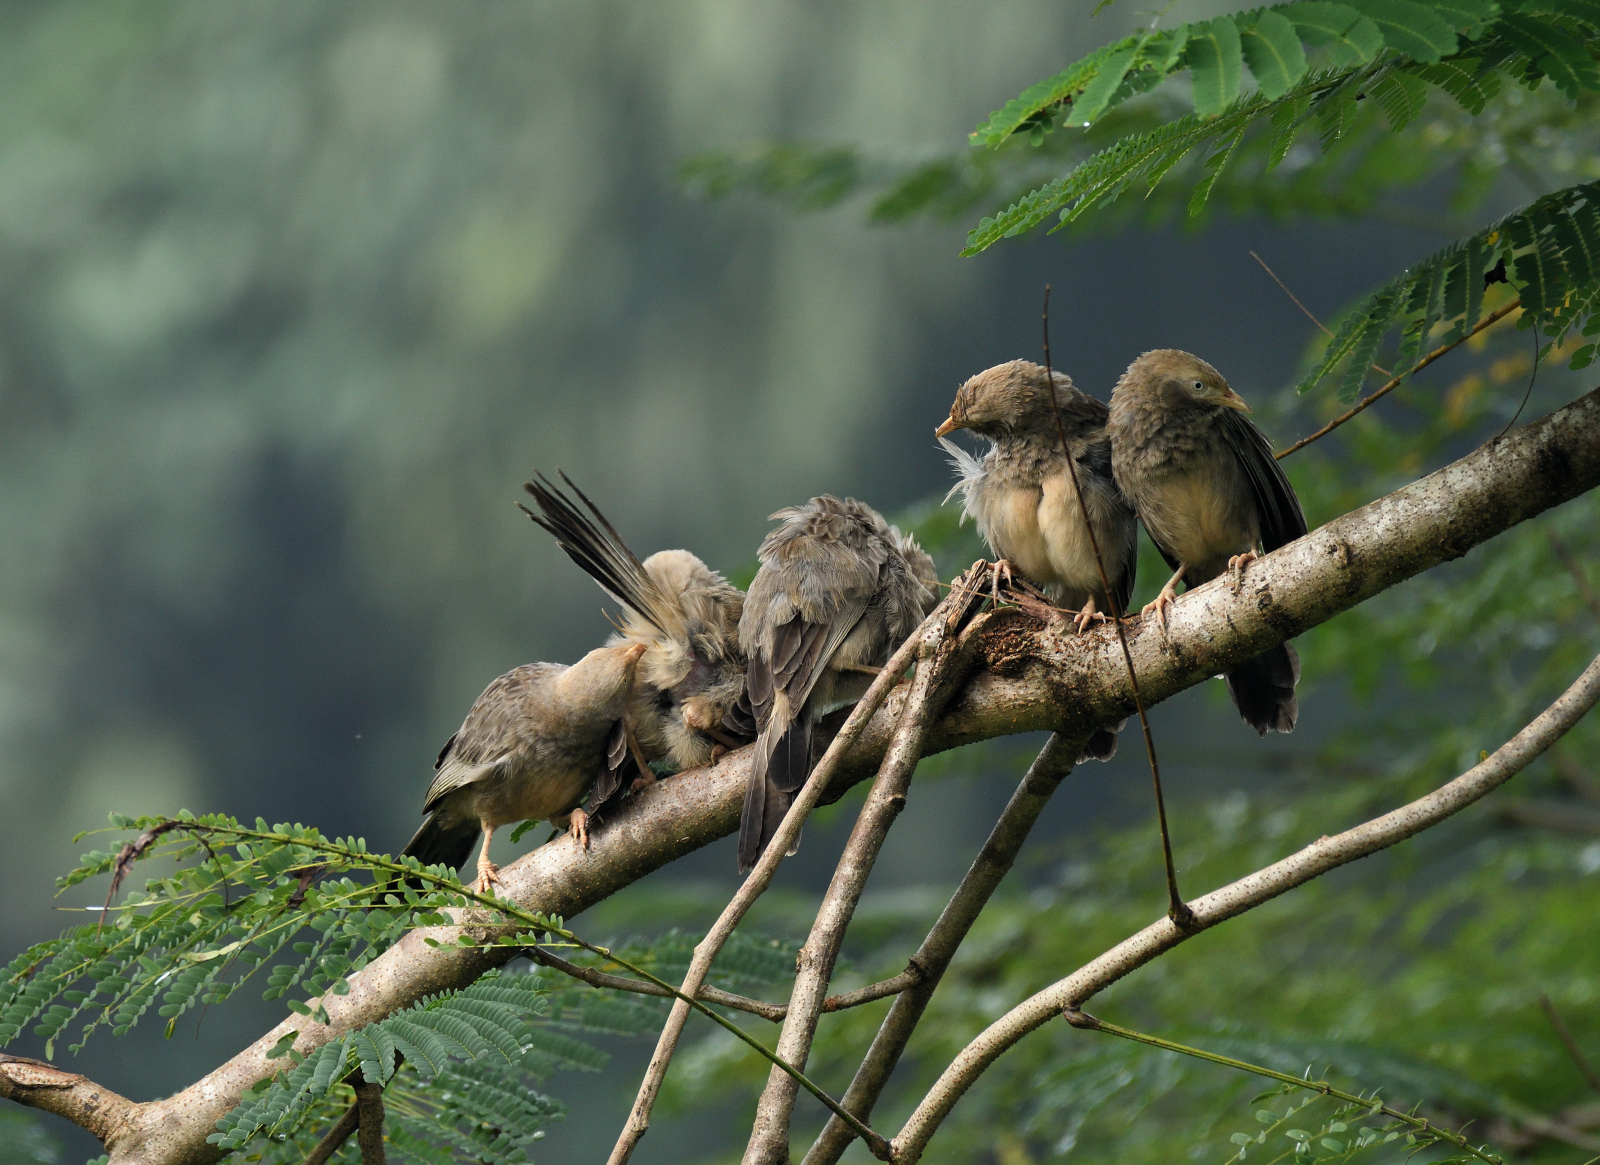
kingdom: Animalia
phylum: Chordata
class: Aves
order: Passeriformes
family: Leiothrichidae
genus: Turdoides
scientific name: Turdoides affinis
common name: Yellow-billed babbler
